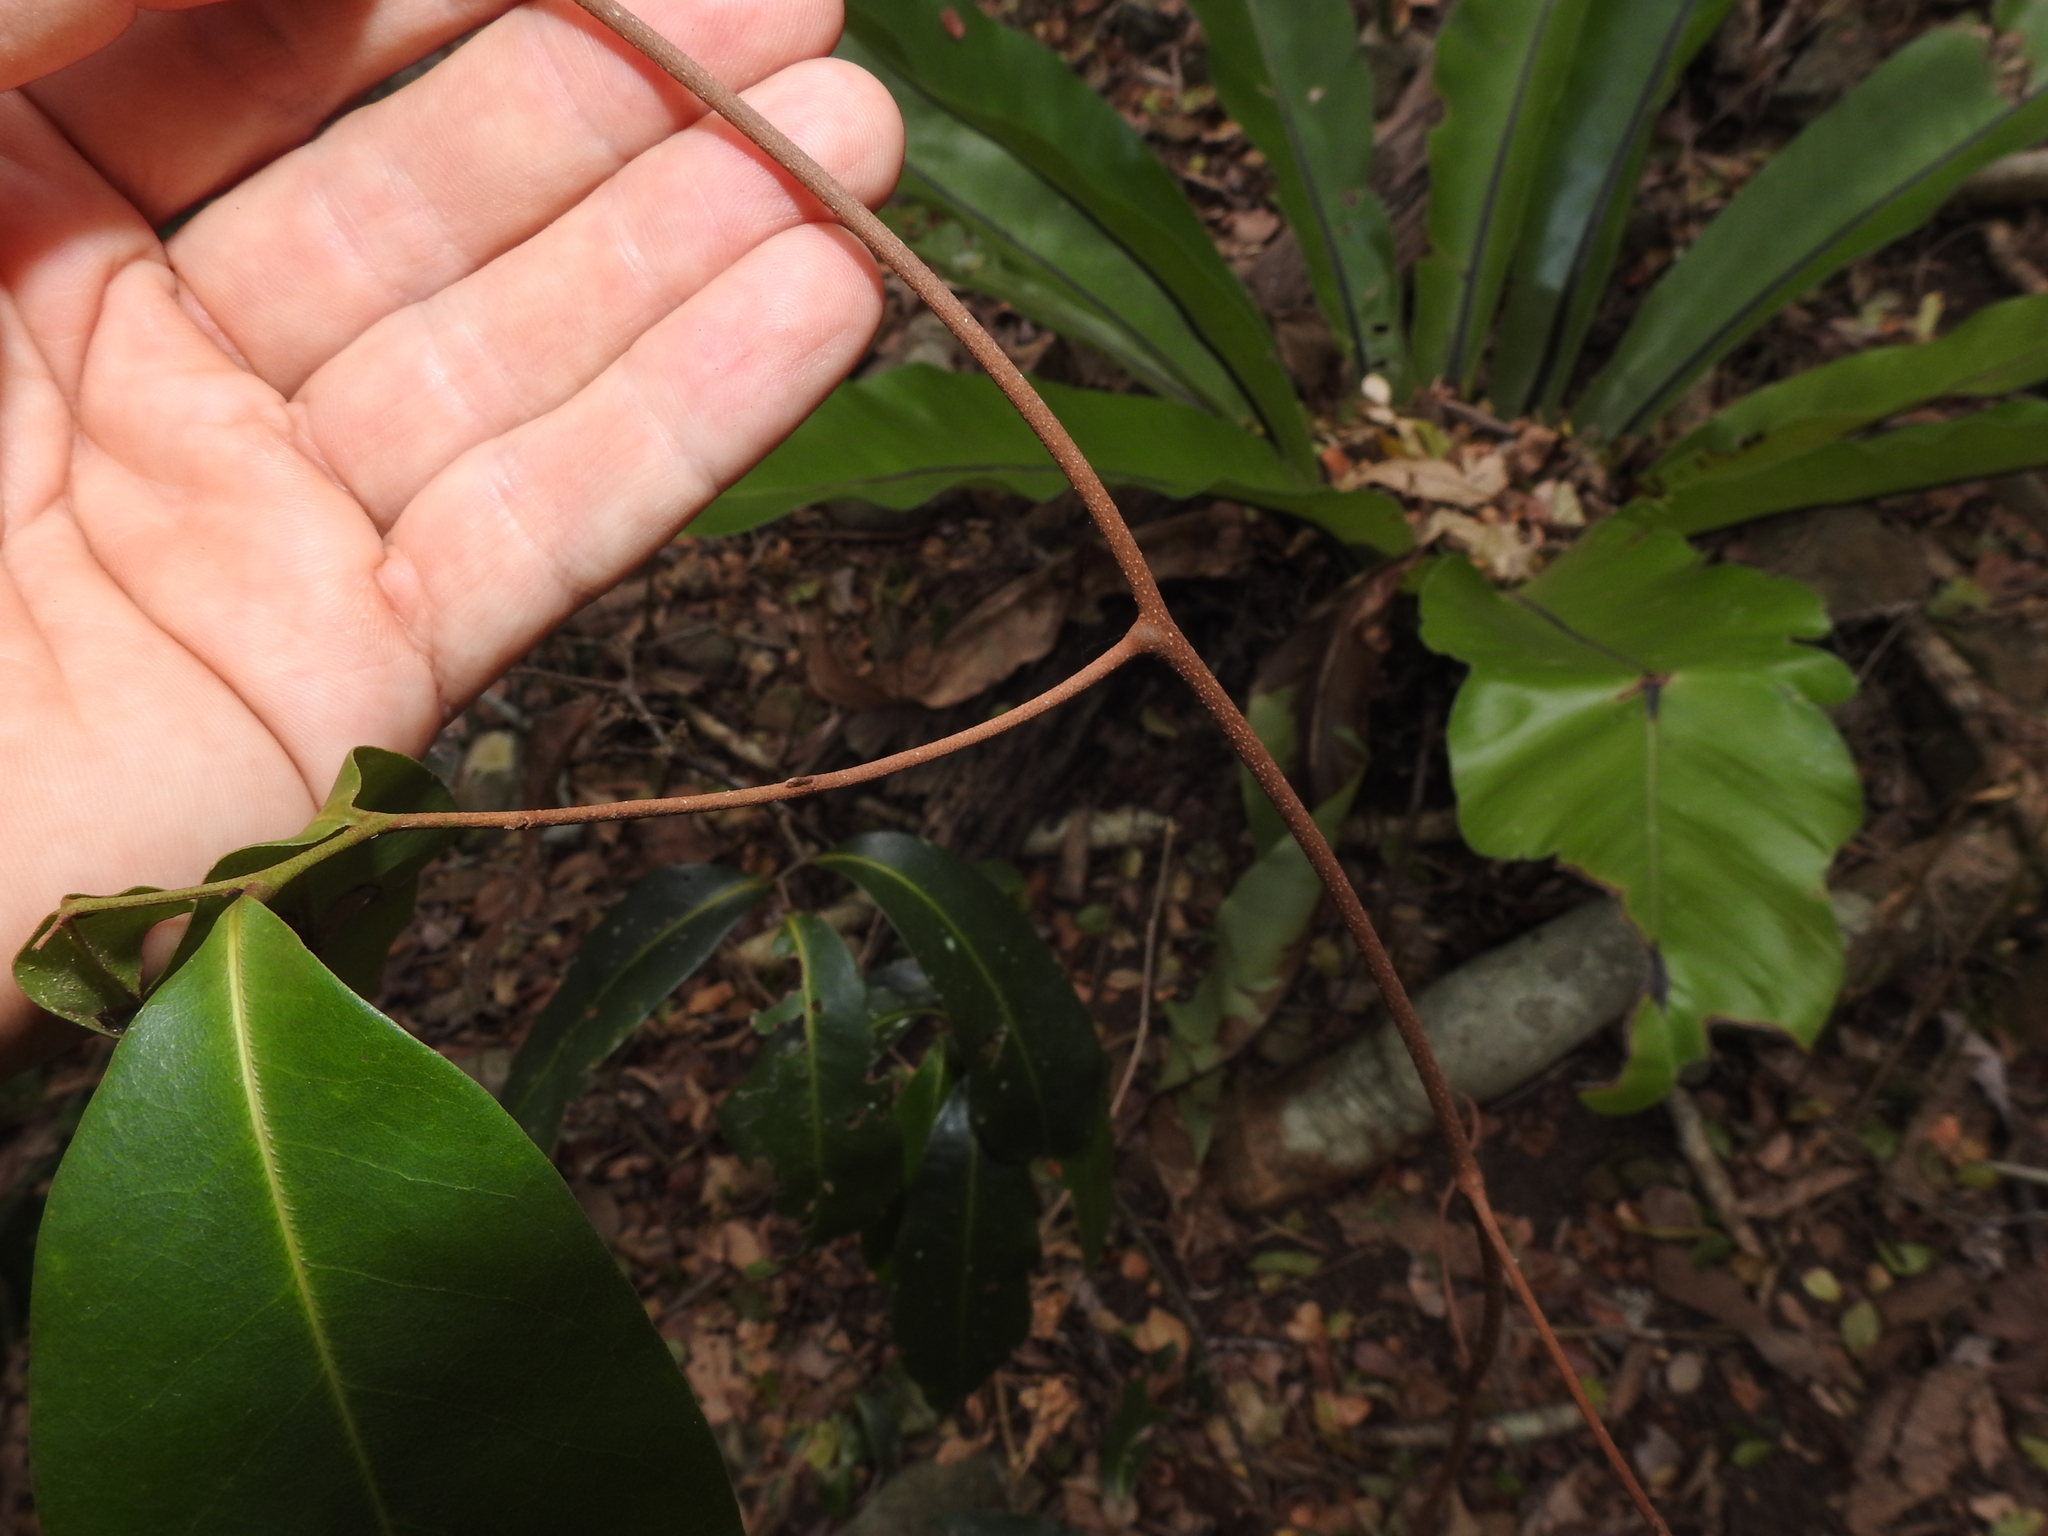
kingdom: Plantae
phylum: Tracheophyta
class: Magnoliopsida
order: Magnoliales
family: Annonaceae
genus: Uvaria
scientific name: Uvaria leichhardtii
